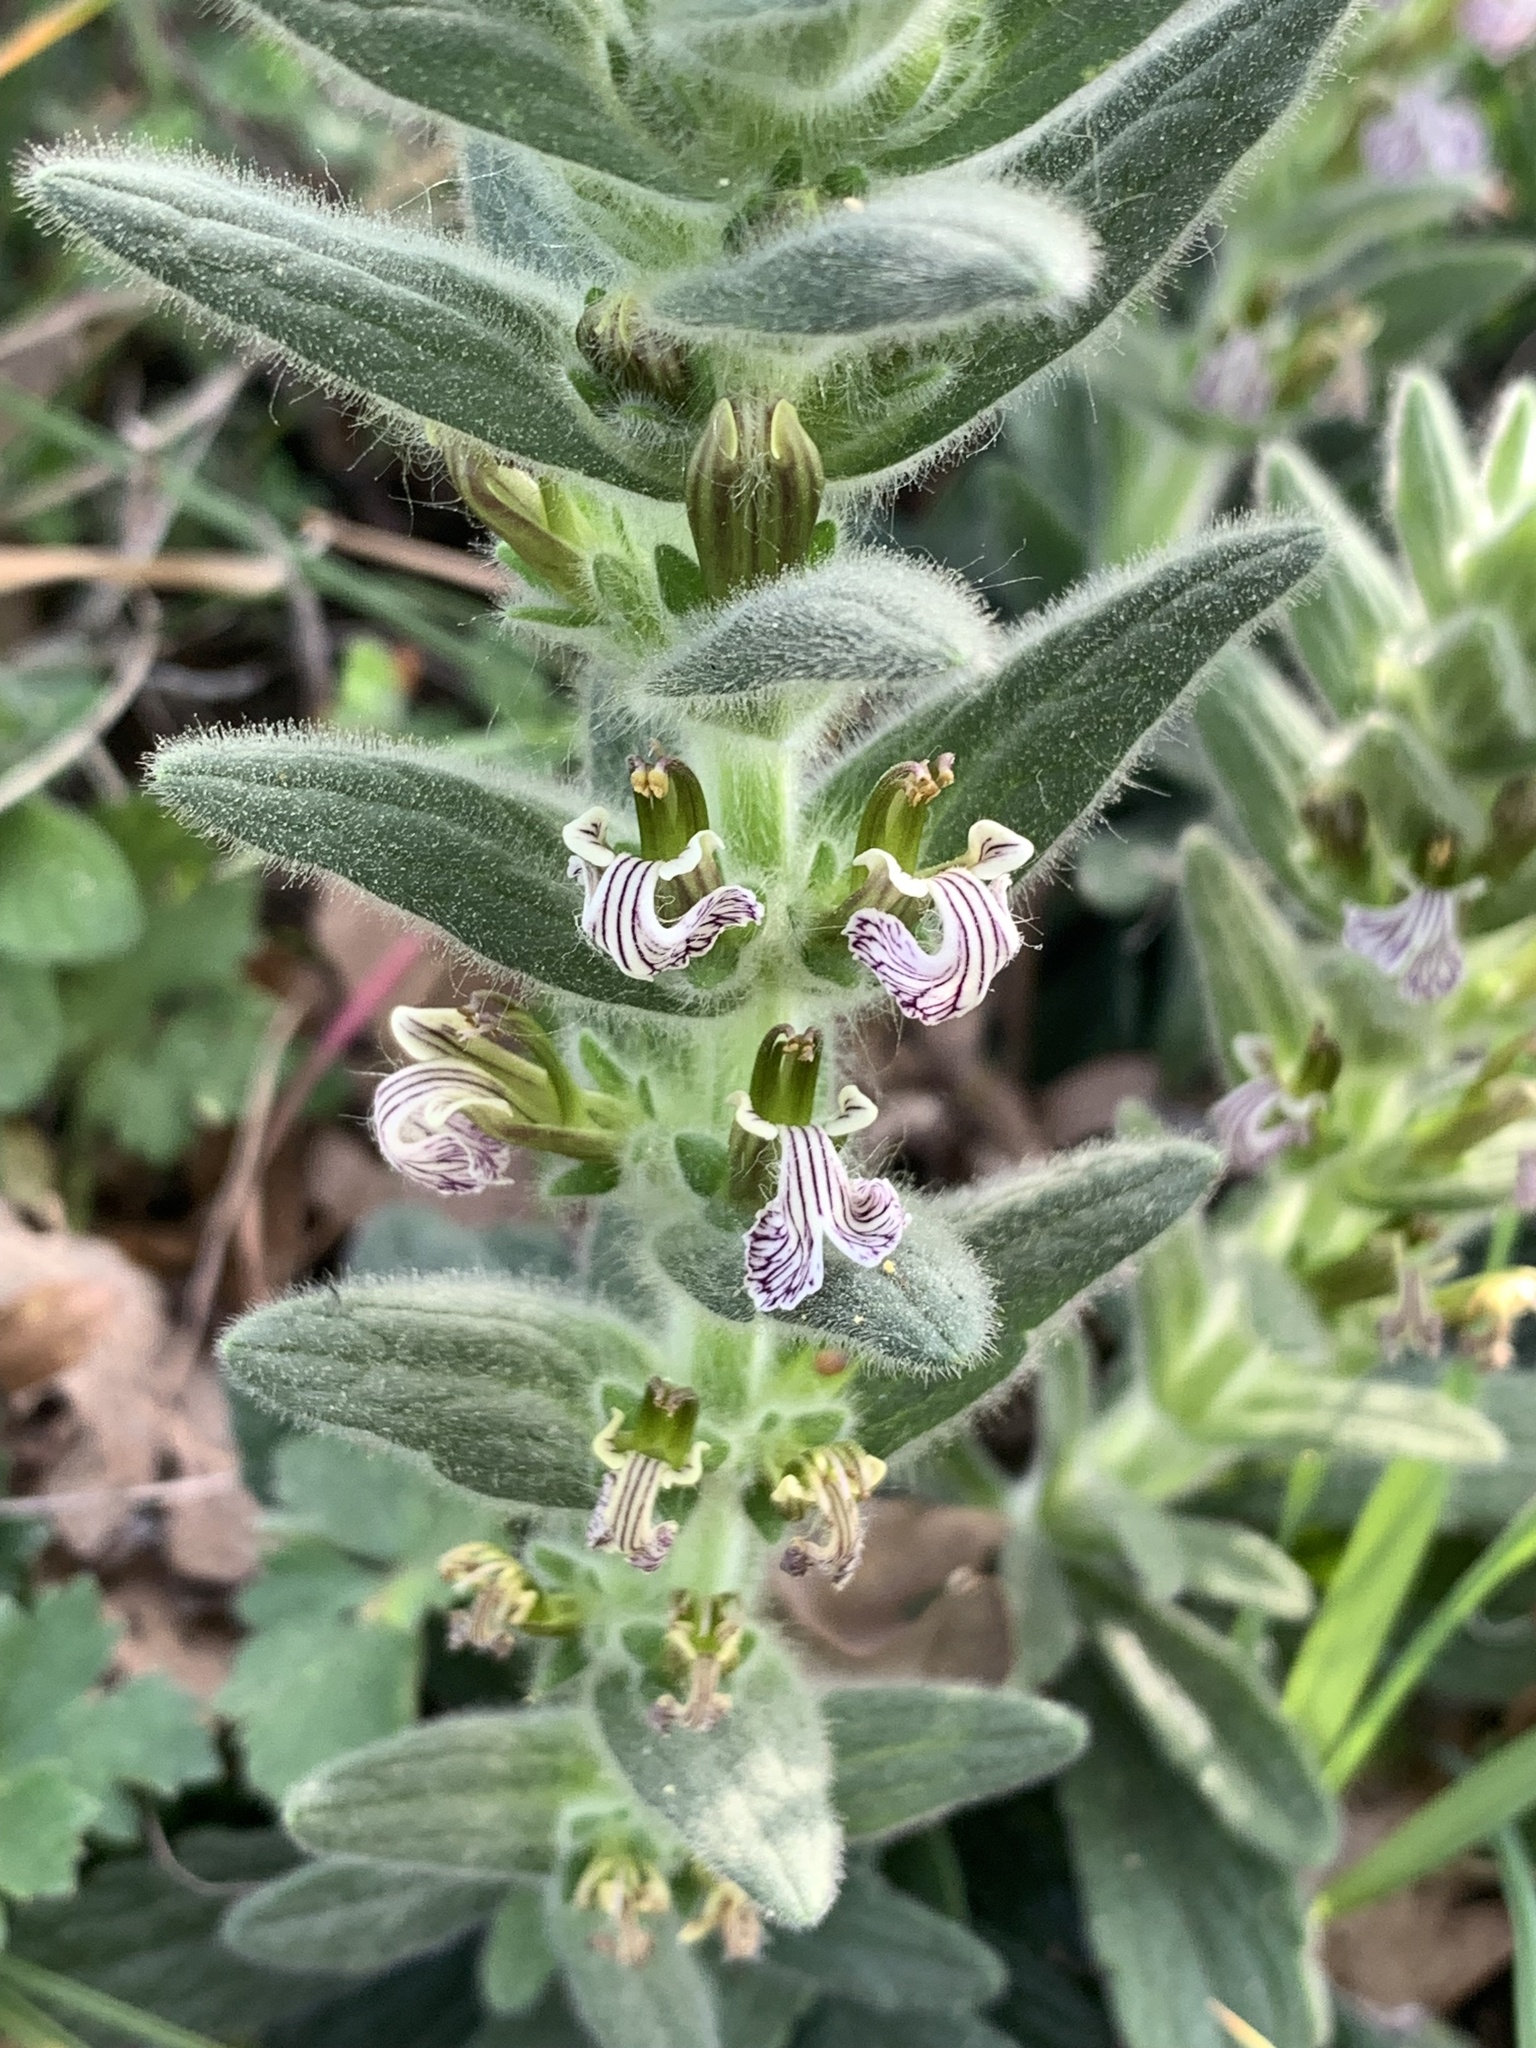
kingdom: Plantae
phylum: Tracheophyta
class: Magnoliopsida
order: Lamiales
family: Lamiaceae
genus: Ajuga
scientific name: Ajuga laxmannii
